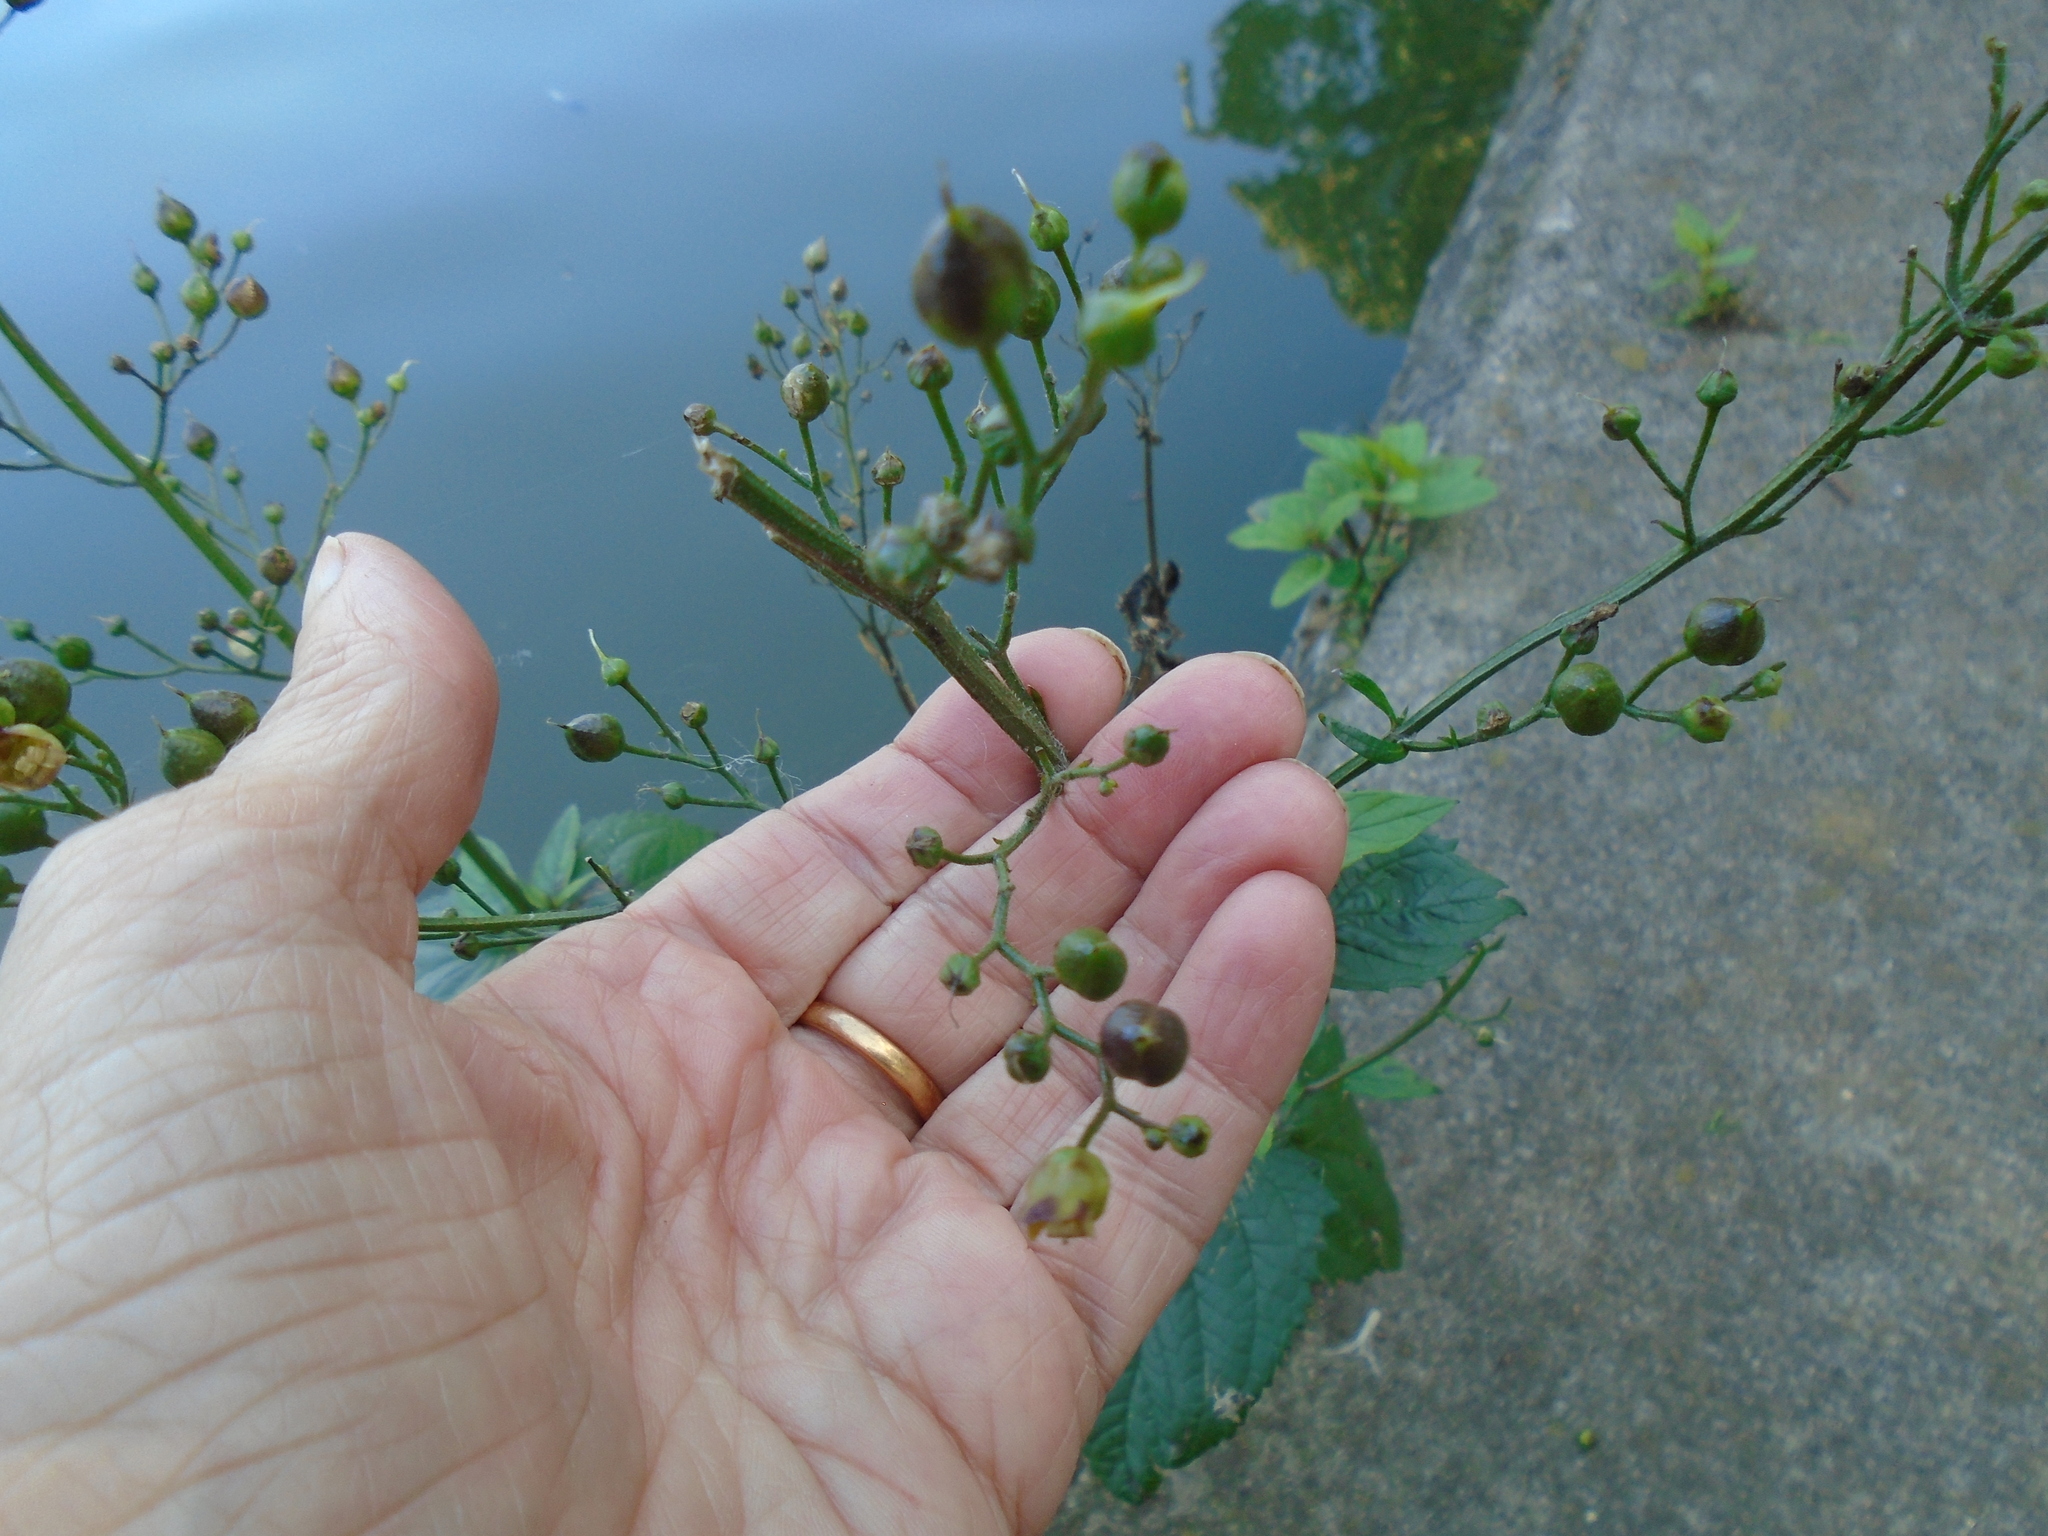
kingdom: Plantae
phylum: Tracheophyta
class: Magnoliopsida
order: Lamiales
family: Scrophulariaceae
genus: Scrophularia
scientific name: Scrophularia nodosa
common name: Common figwort
